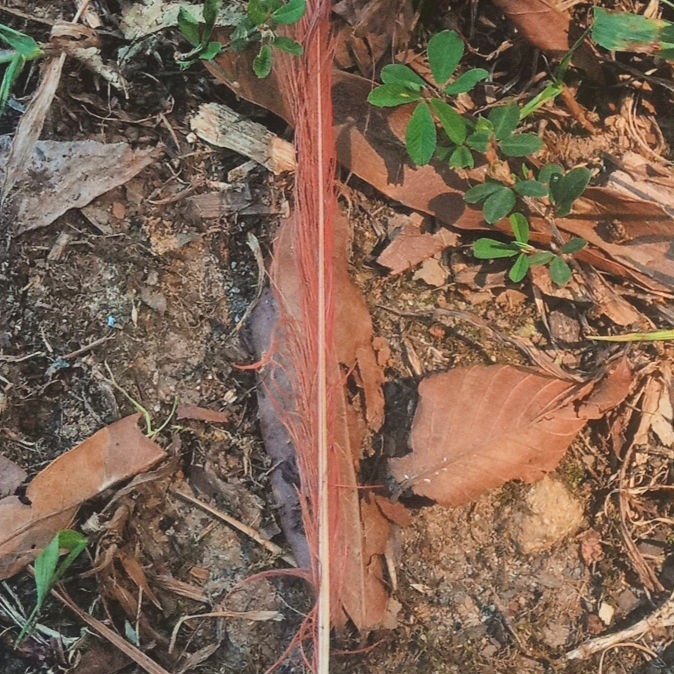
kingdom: Animalia
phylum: Chordata
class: Aves
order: Passeriformes
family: Cardinalidae
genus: Cardinalis
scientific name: Cardinalis cardinalis
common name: Northern cardinal
